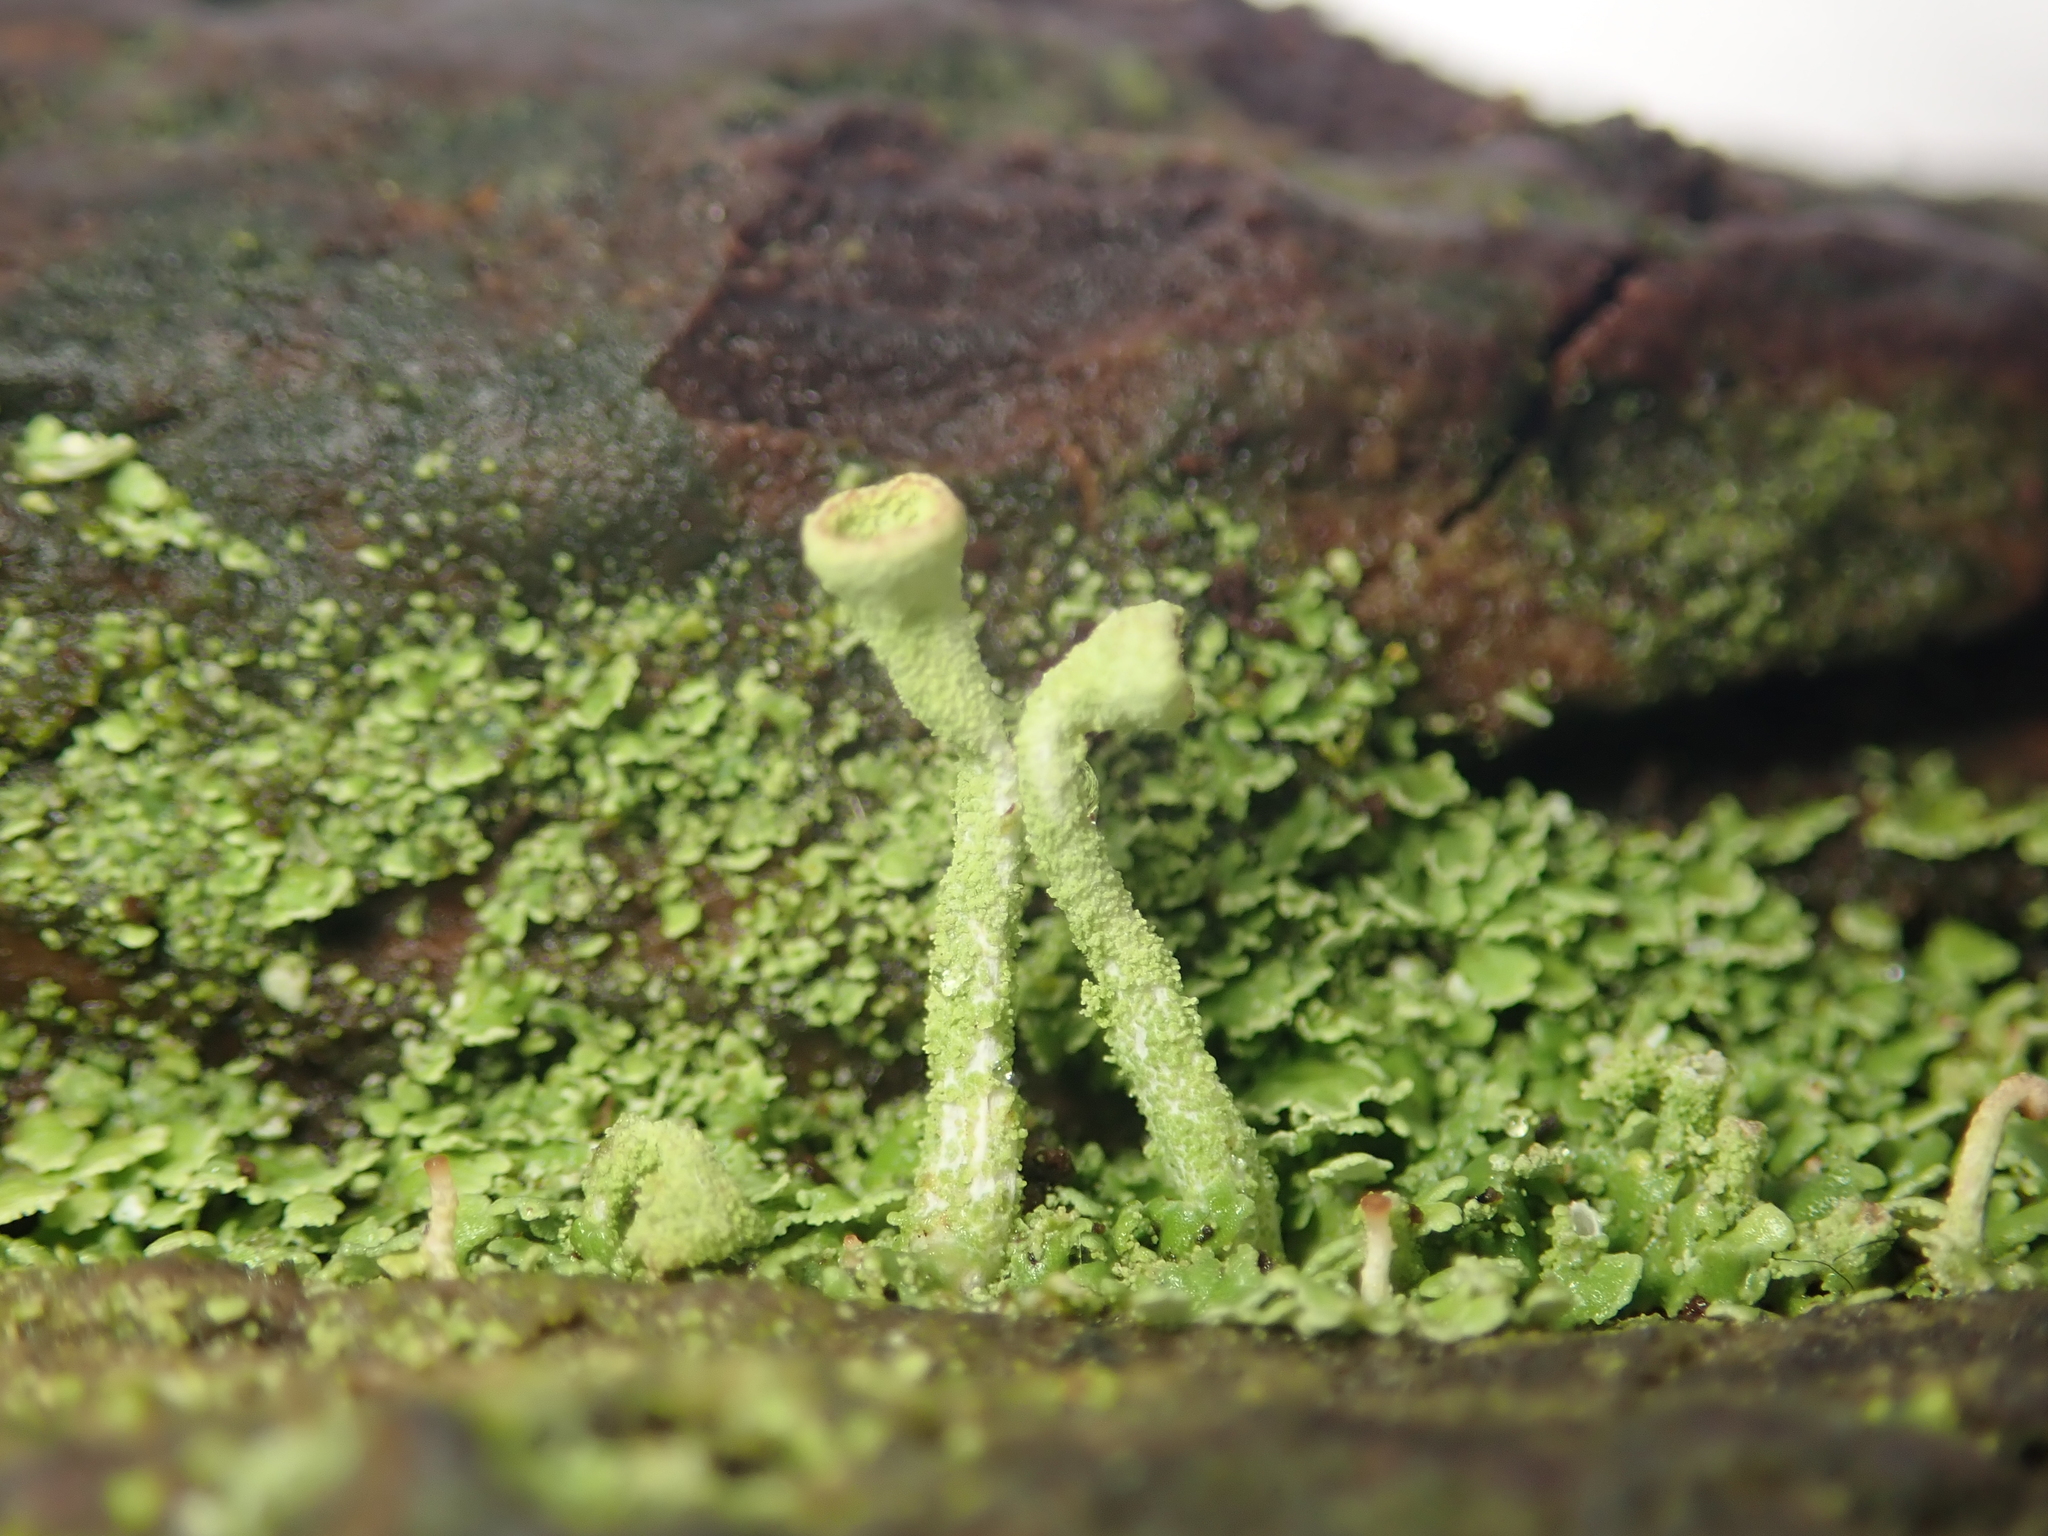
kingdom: Fungi
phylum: Ascomycota
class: Lecanoromycetes
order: Lecanorales
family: Cladoniaceae
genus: Cladonia
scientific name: Cladonia fimbriata
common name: Powdered trumpet lichen
